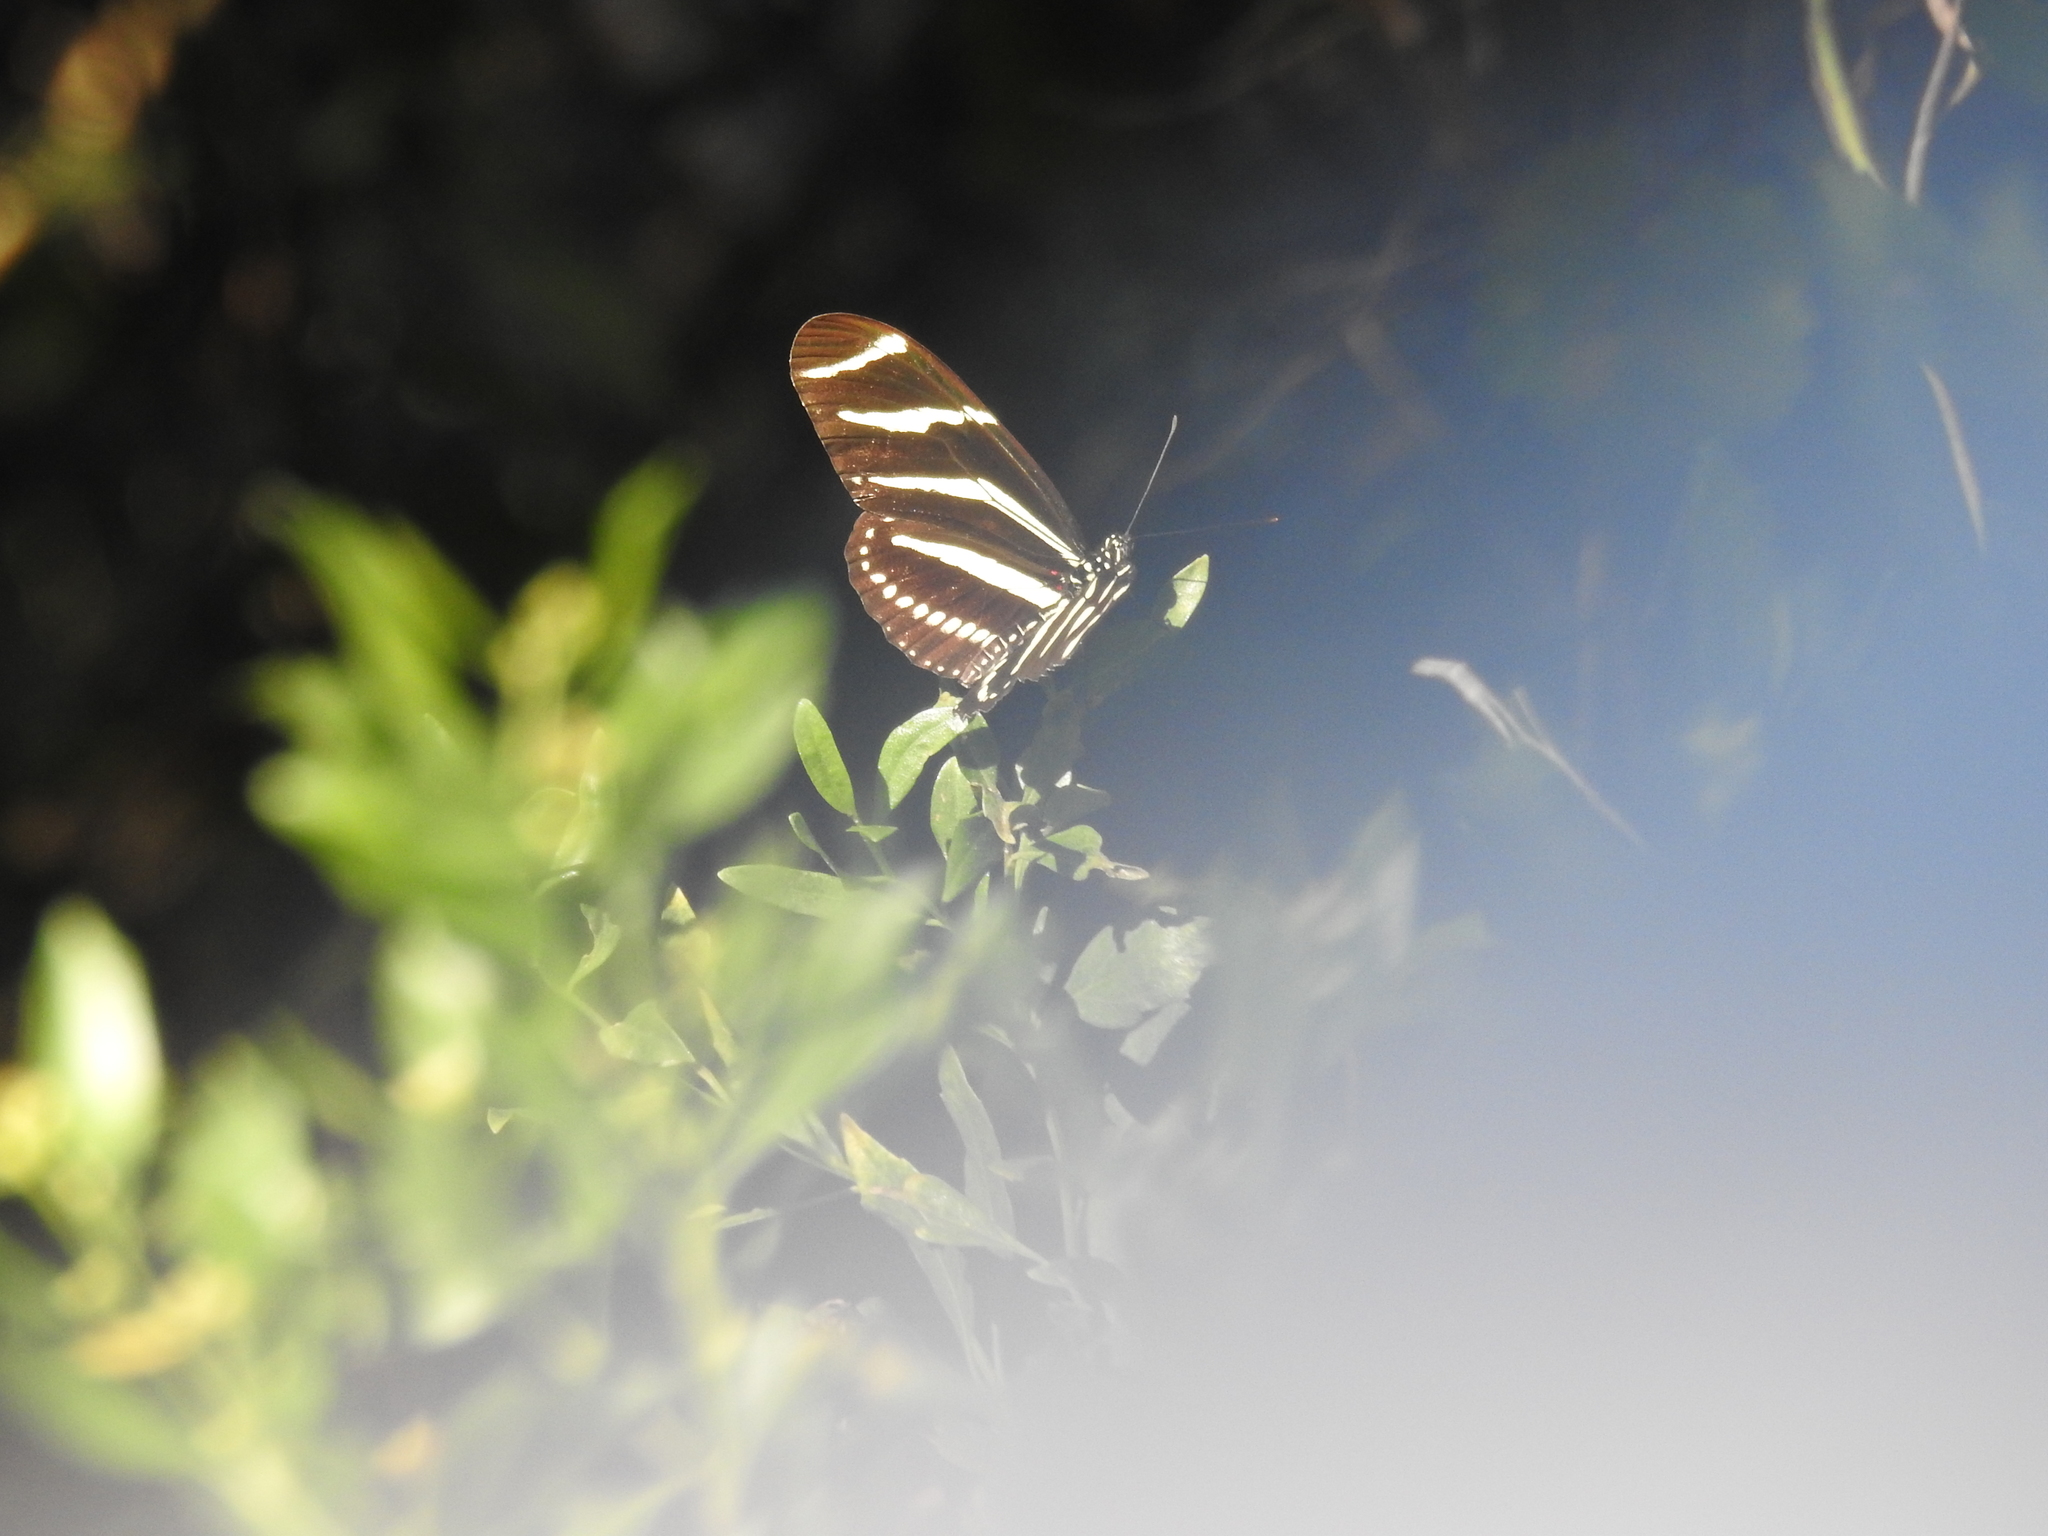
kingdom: Animalia
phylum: Arthropoda
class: Insecta
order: Lepidoptera
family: Nymphalidae
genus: Heliconius
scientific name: Heliconius charithonia
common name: Zebra long wing
